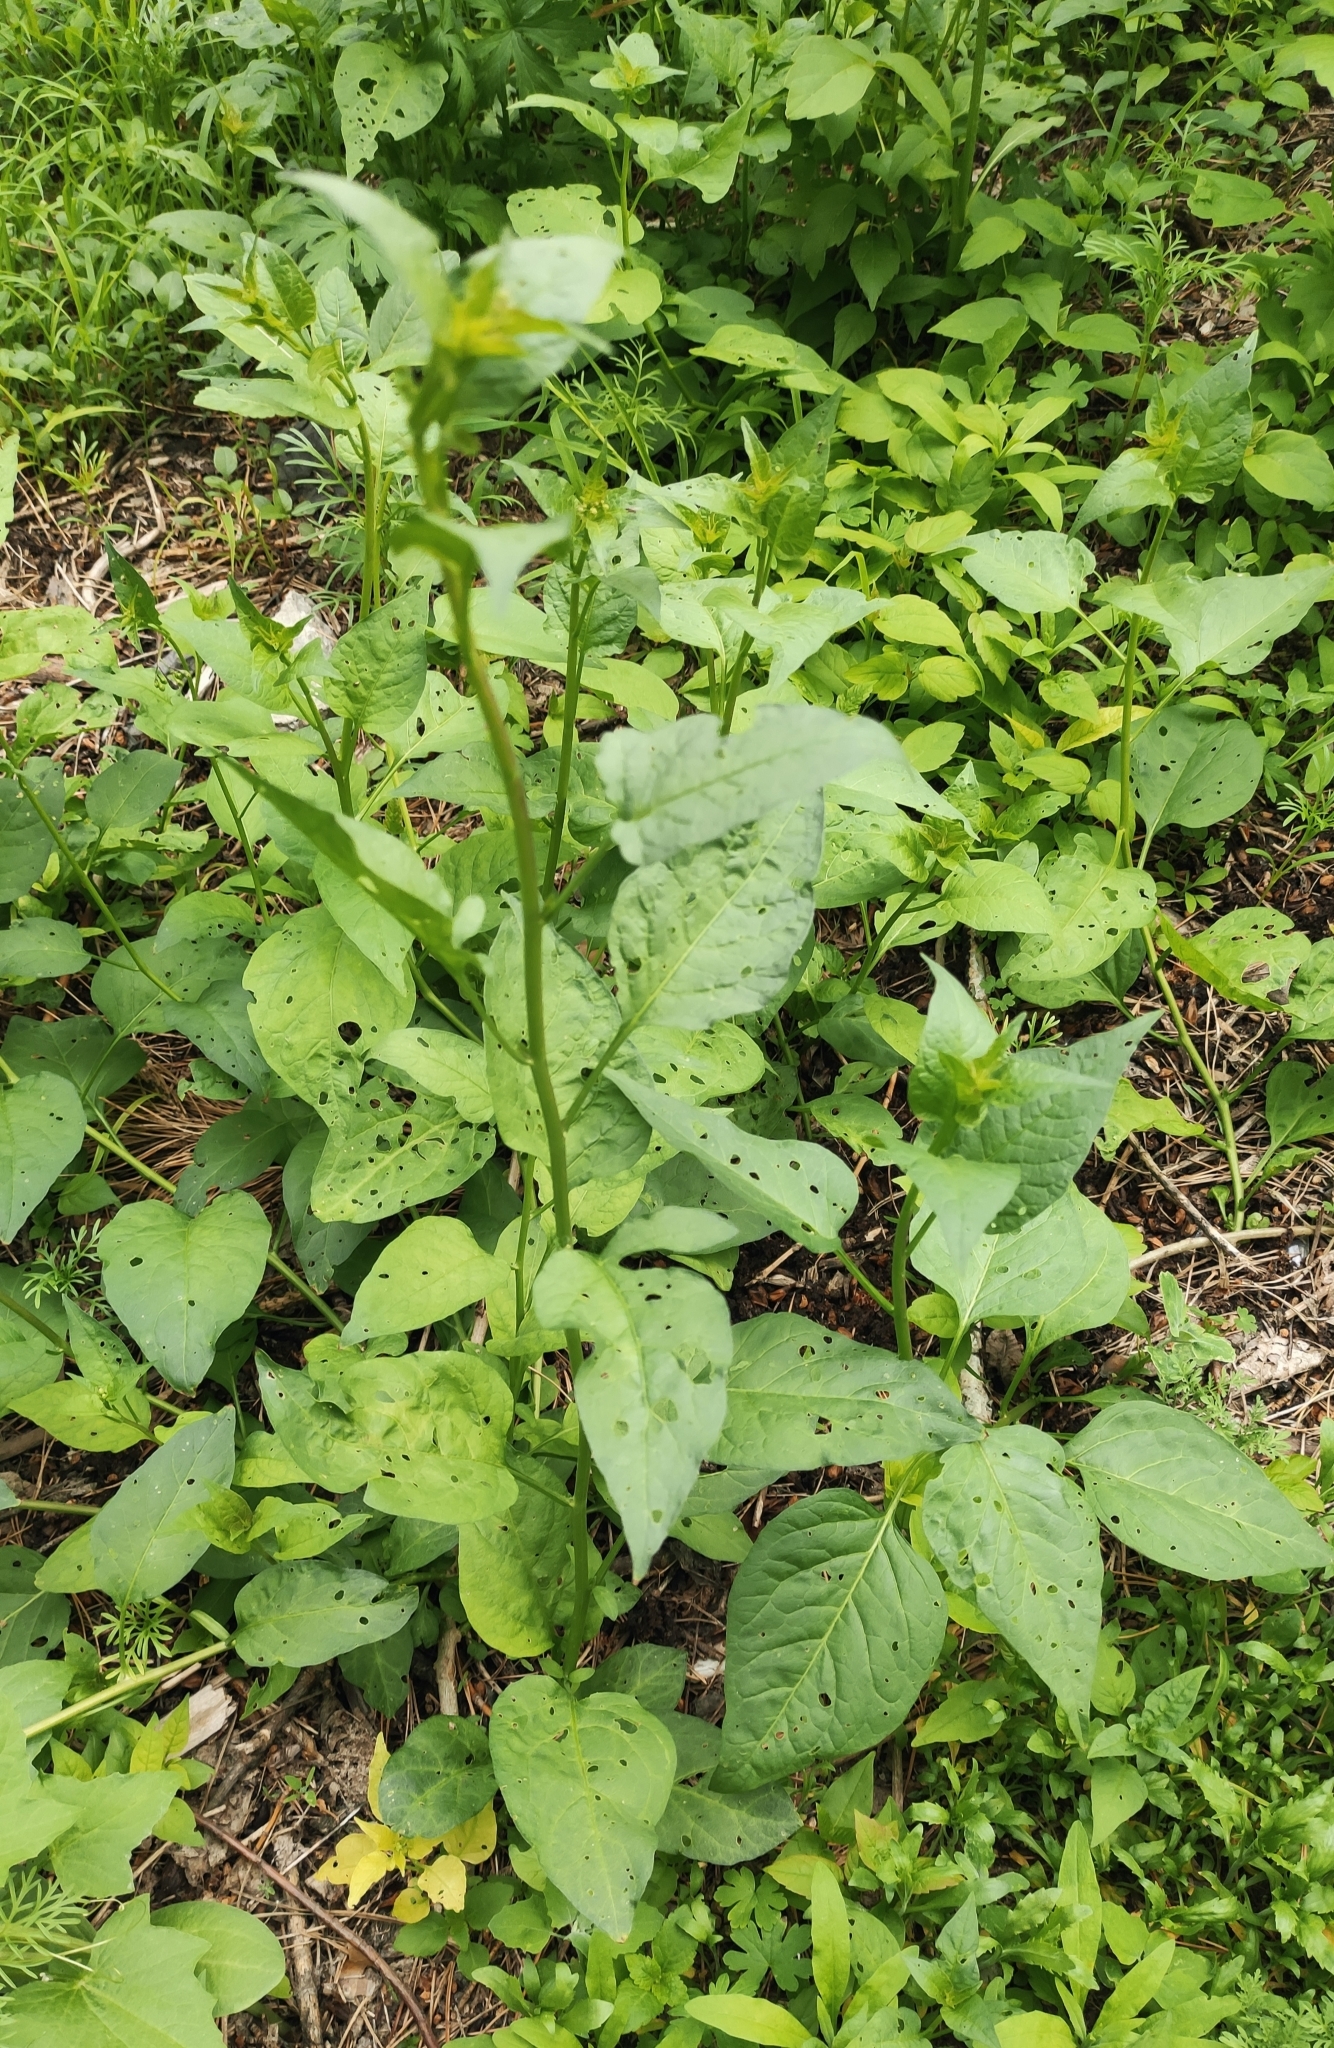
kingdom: Plantae
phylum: Tracheophyta
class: Magnoliopsida
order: Solanales
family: Solanaceae
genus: Solanum
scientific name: Solanum dulcamara
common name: Climbing nightshade
